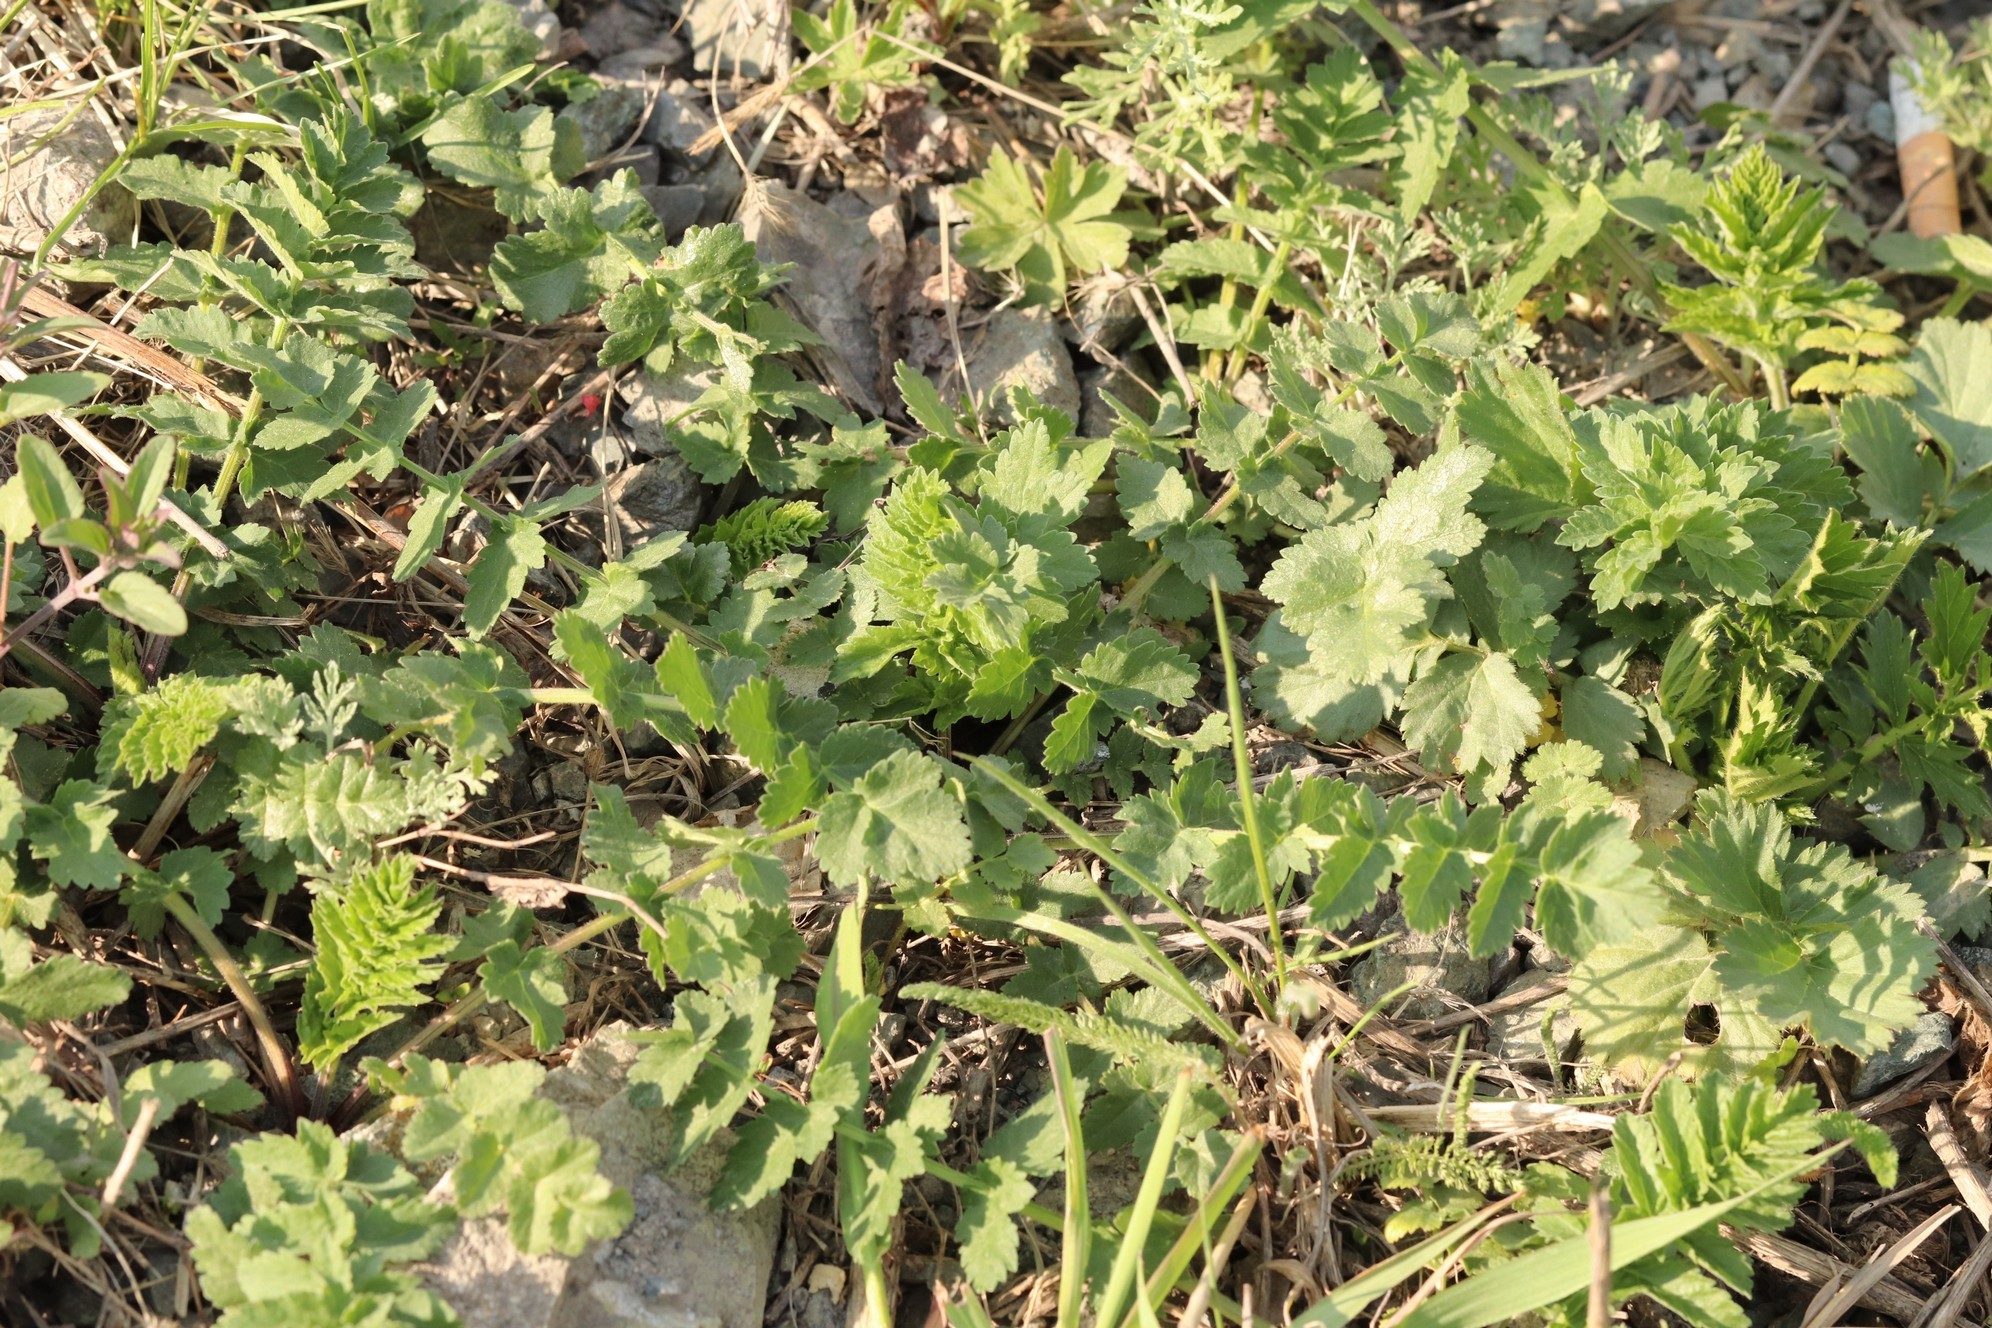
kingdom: Plantae
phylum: Tracheophyta
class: Magnoliopsida
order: Apiales
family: Apiaceae
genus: Pimpinella
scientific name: Pimpinella saxifraga
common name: Burnet-saxifrage
